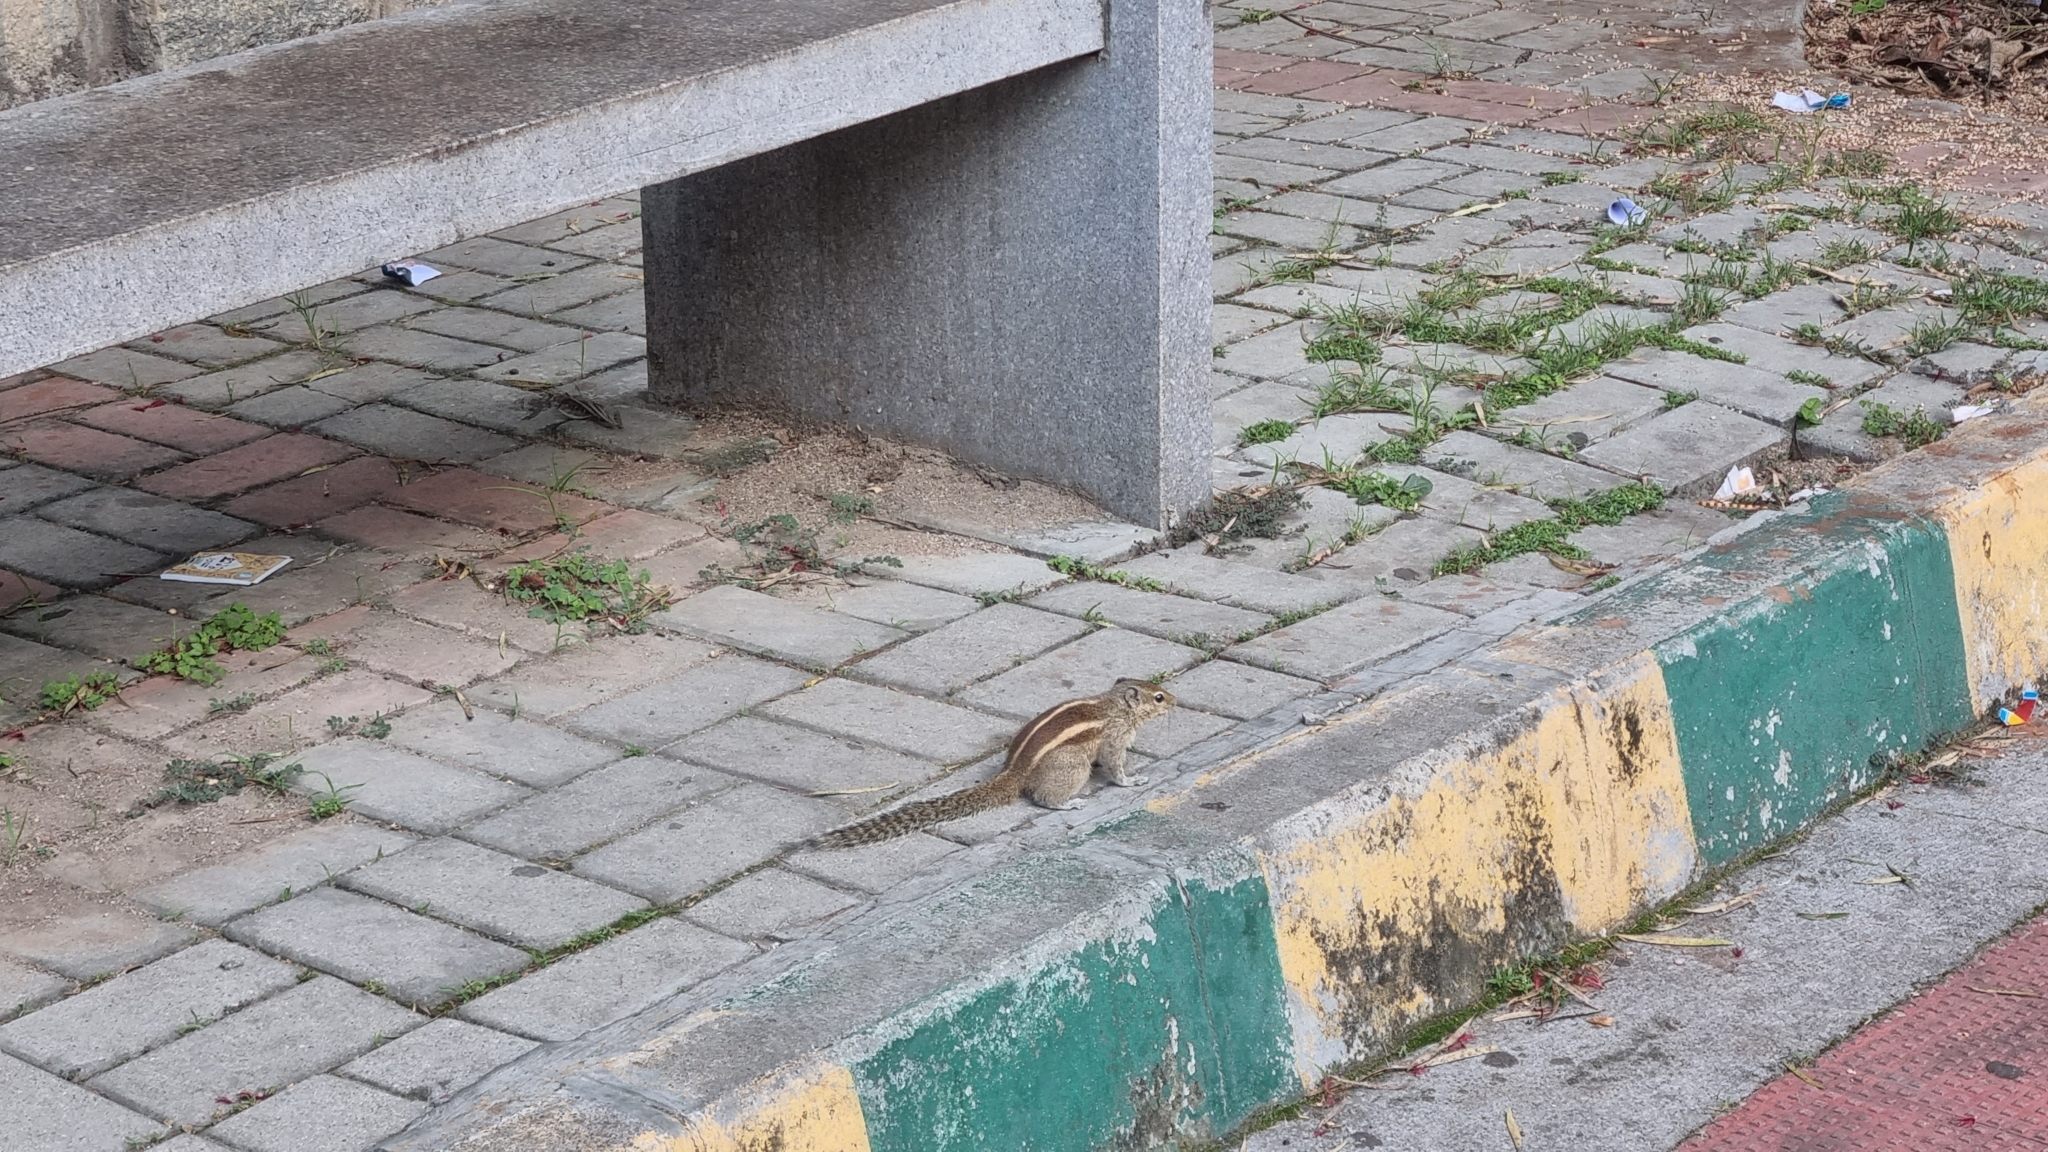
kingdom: Animalia
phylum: Chordata
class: Mammalia
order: Rodentia
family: Sciuridae
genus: Funambulus
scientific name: Funambulus palmarum
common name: Indian palm squirrel
